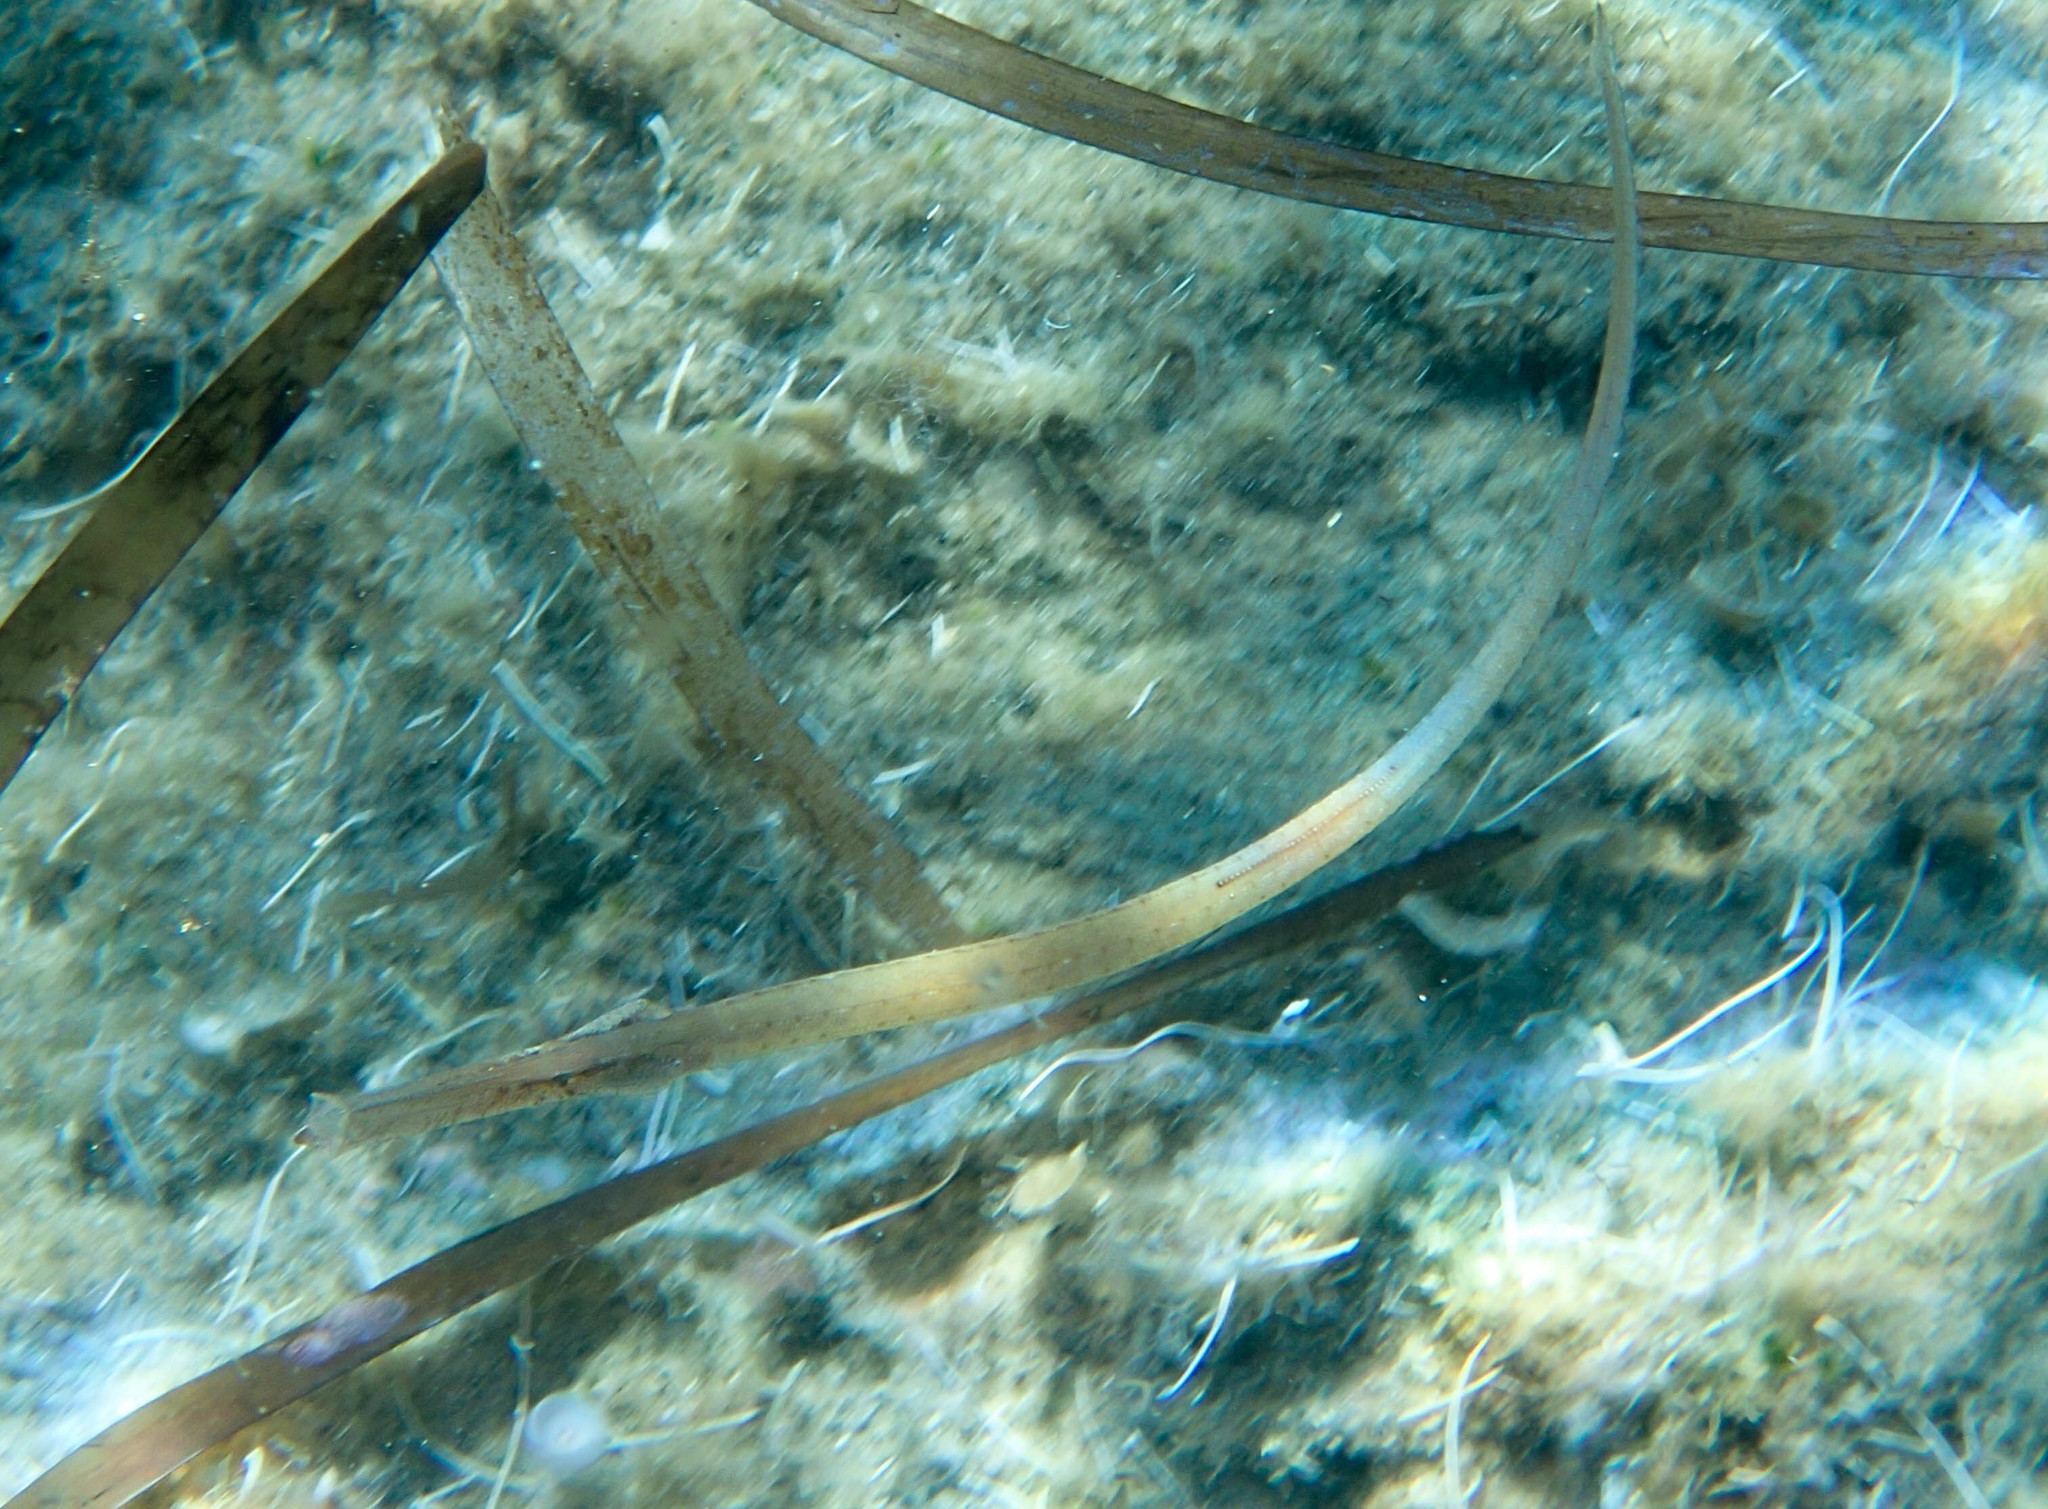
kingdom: Animalia
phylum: Chordata
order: Syngnathiformes
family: Syngnathidae
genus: Syngnathus
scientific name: Syngnathus typhle
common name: Deep-snouted pipefish
